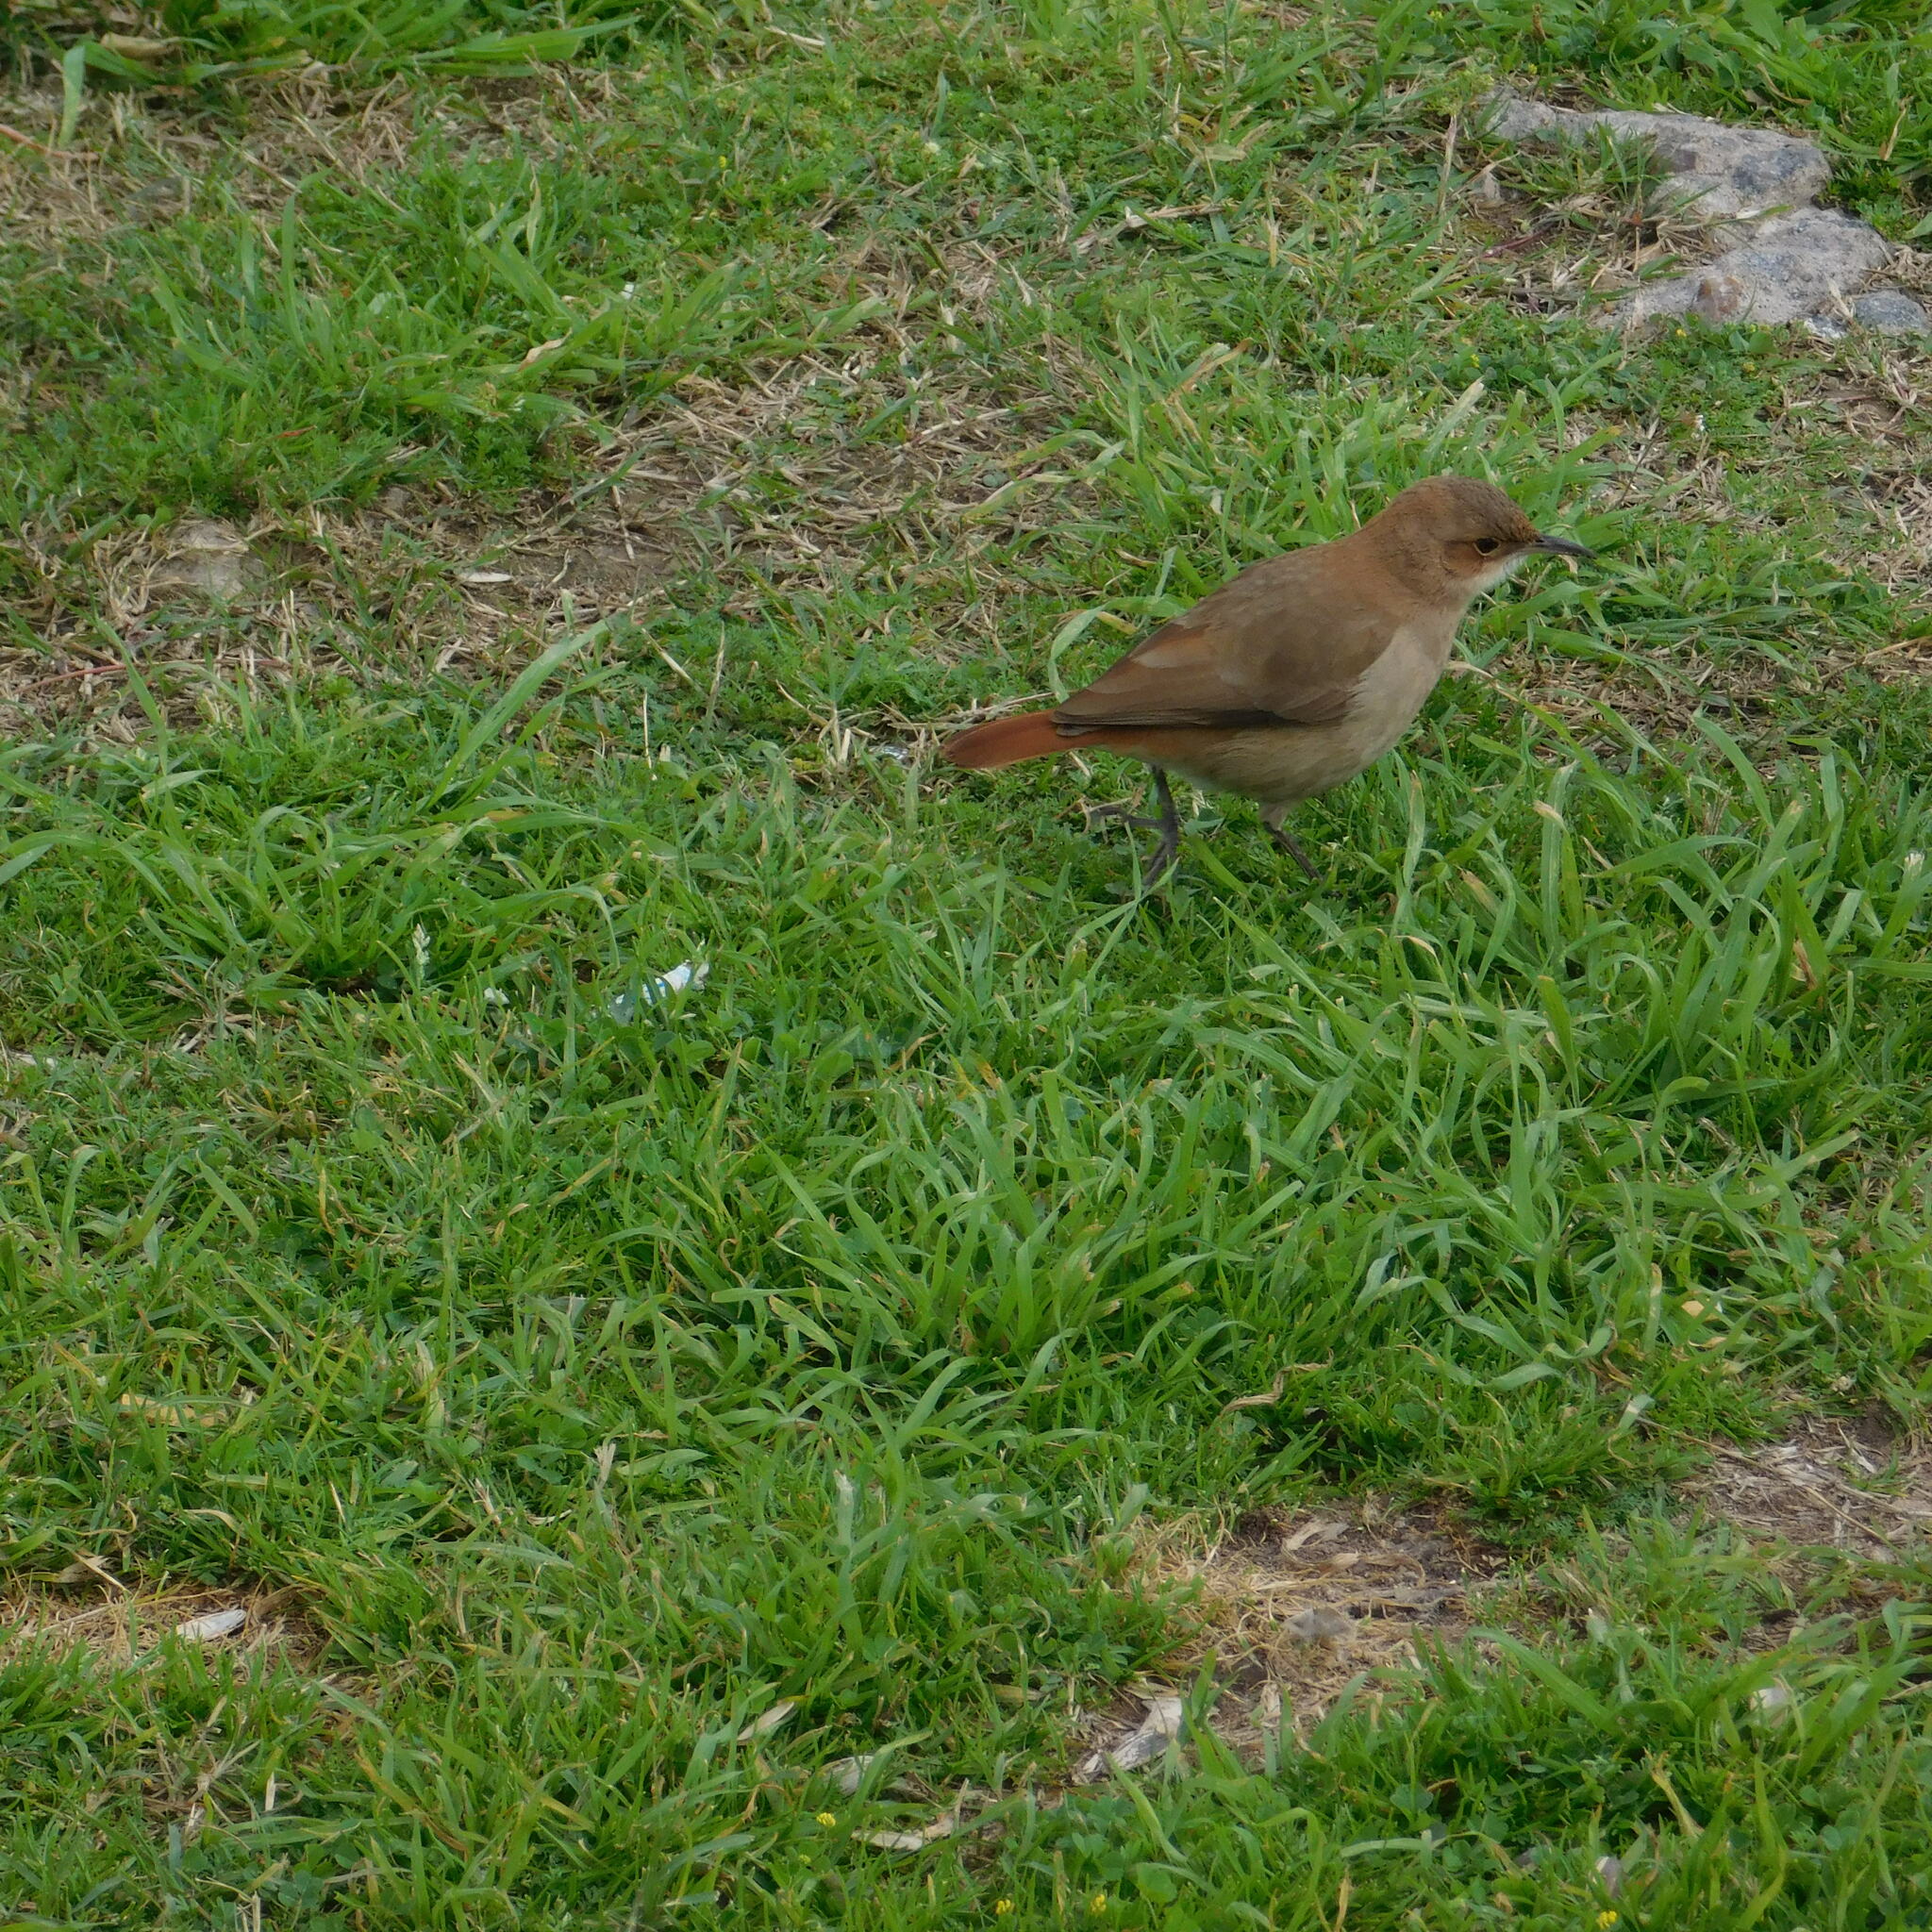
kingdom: Animalia
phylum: Chordata
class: Aves
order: Passeriformes
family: Furnariidae
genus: Furnarius
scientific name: Furnarius rufus
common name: Rufous hornero
